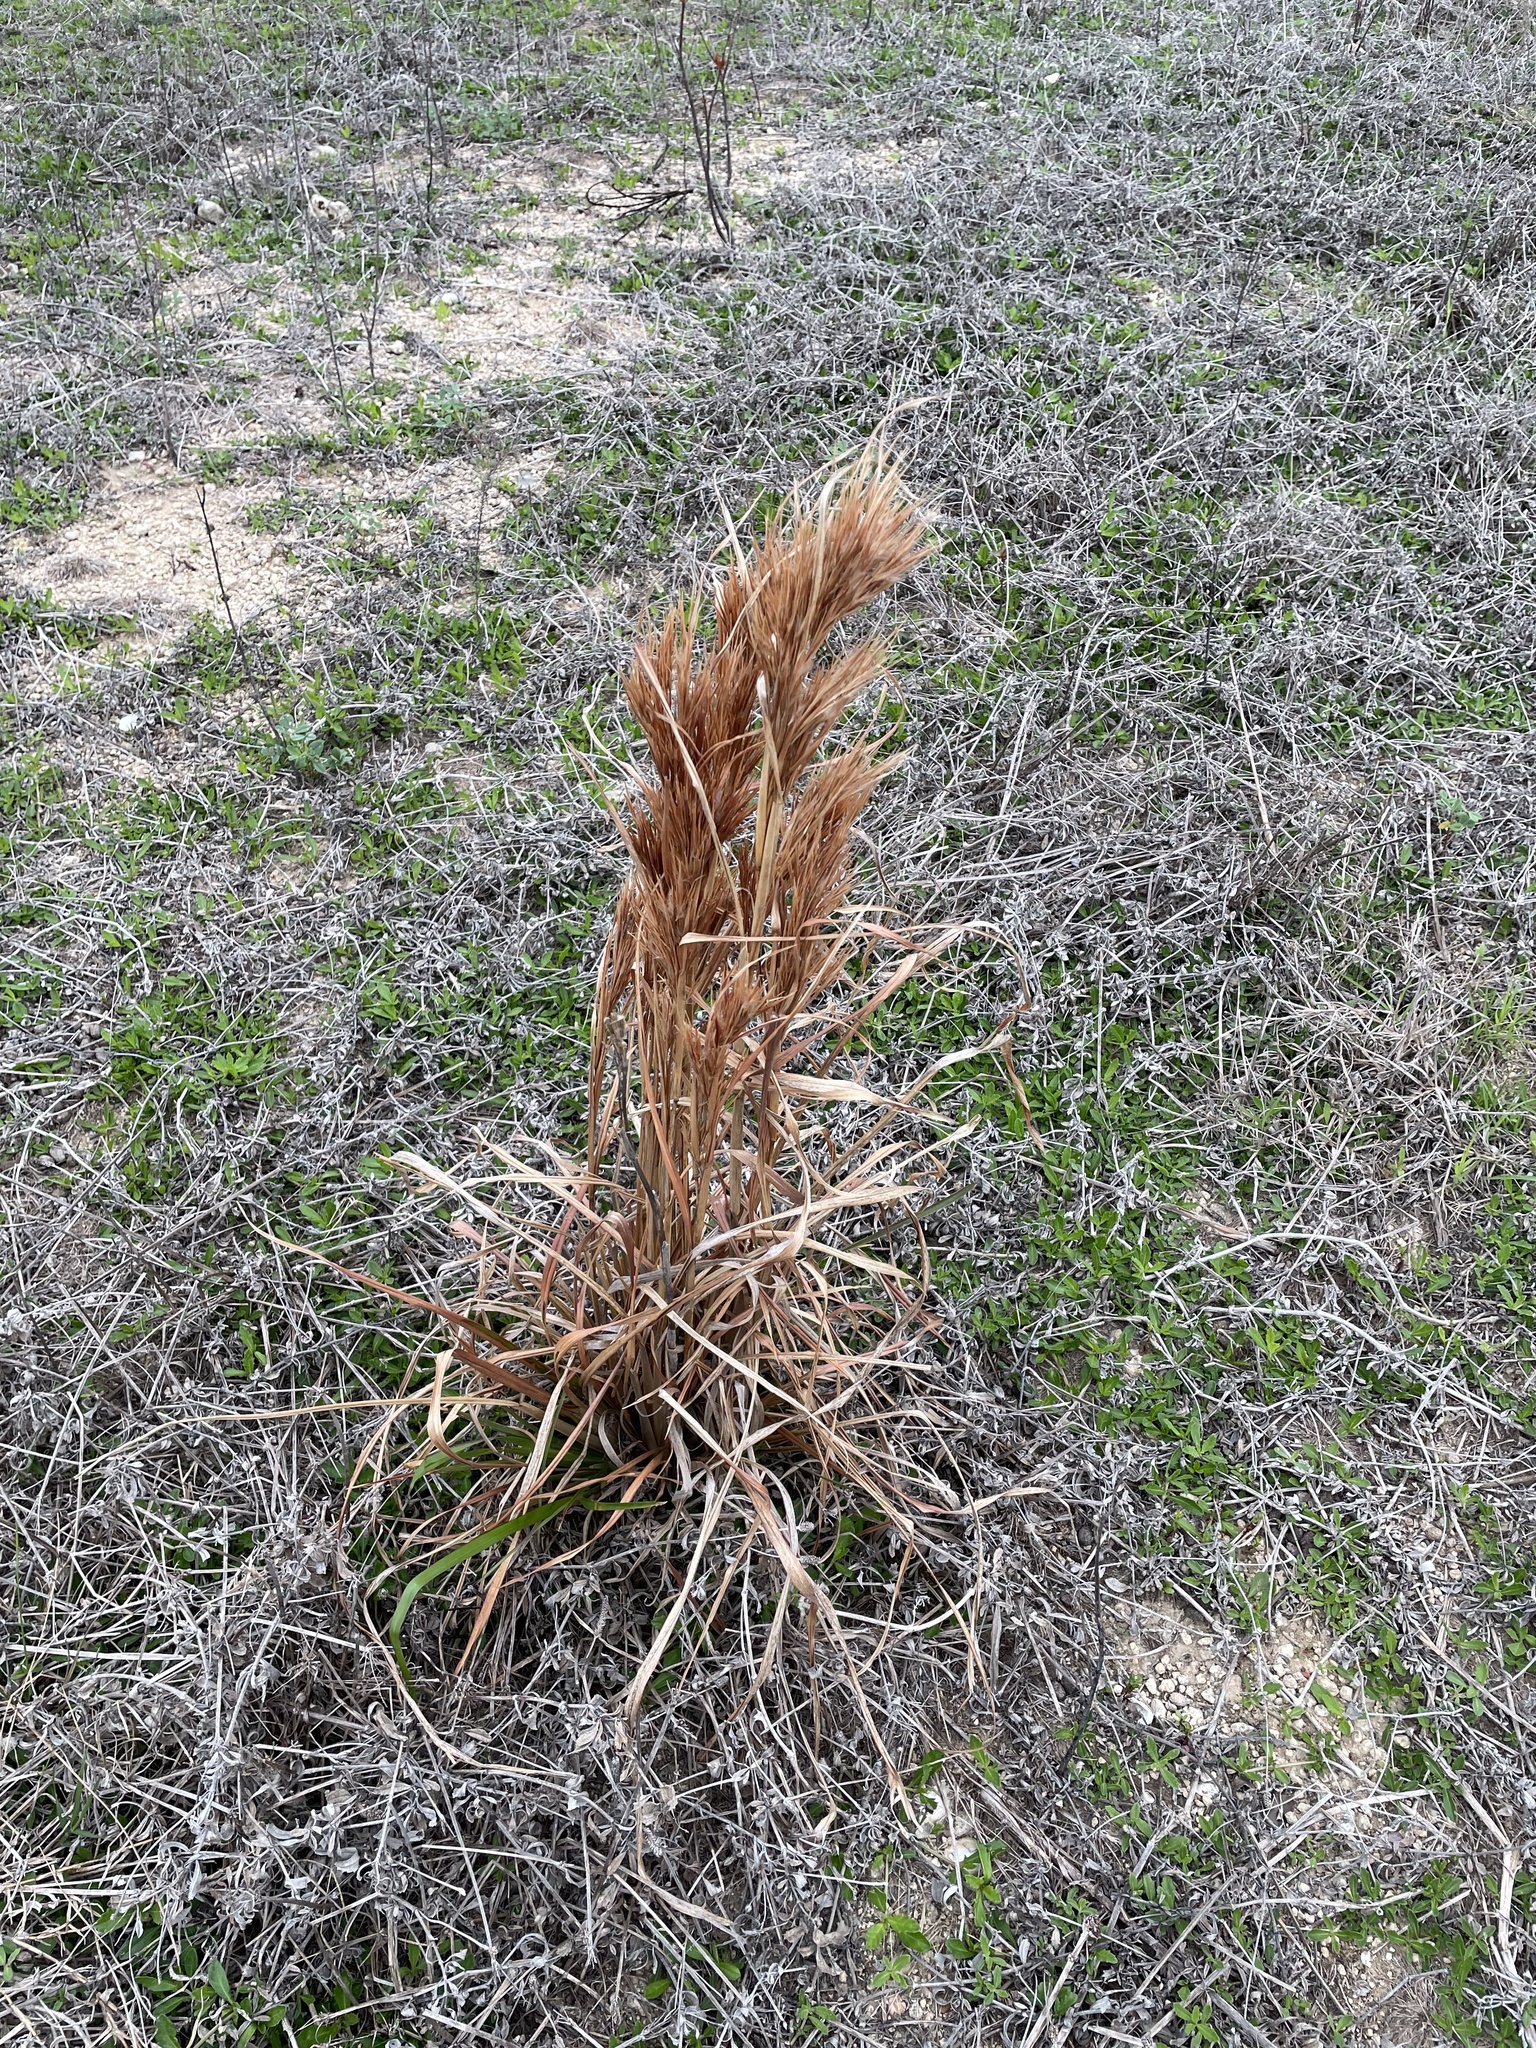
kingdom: Plantae
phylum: Tracheophyta
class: Liliopsida
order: Poales
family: Poaceae
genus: Andropogon
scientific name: Andropogon tenuispatheus
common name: Bushy bluestem
